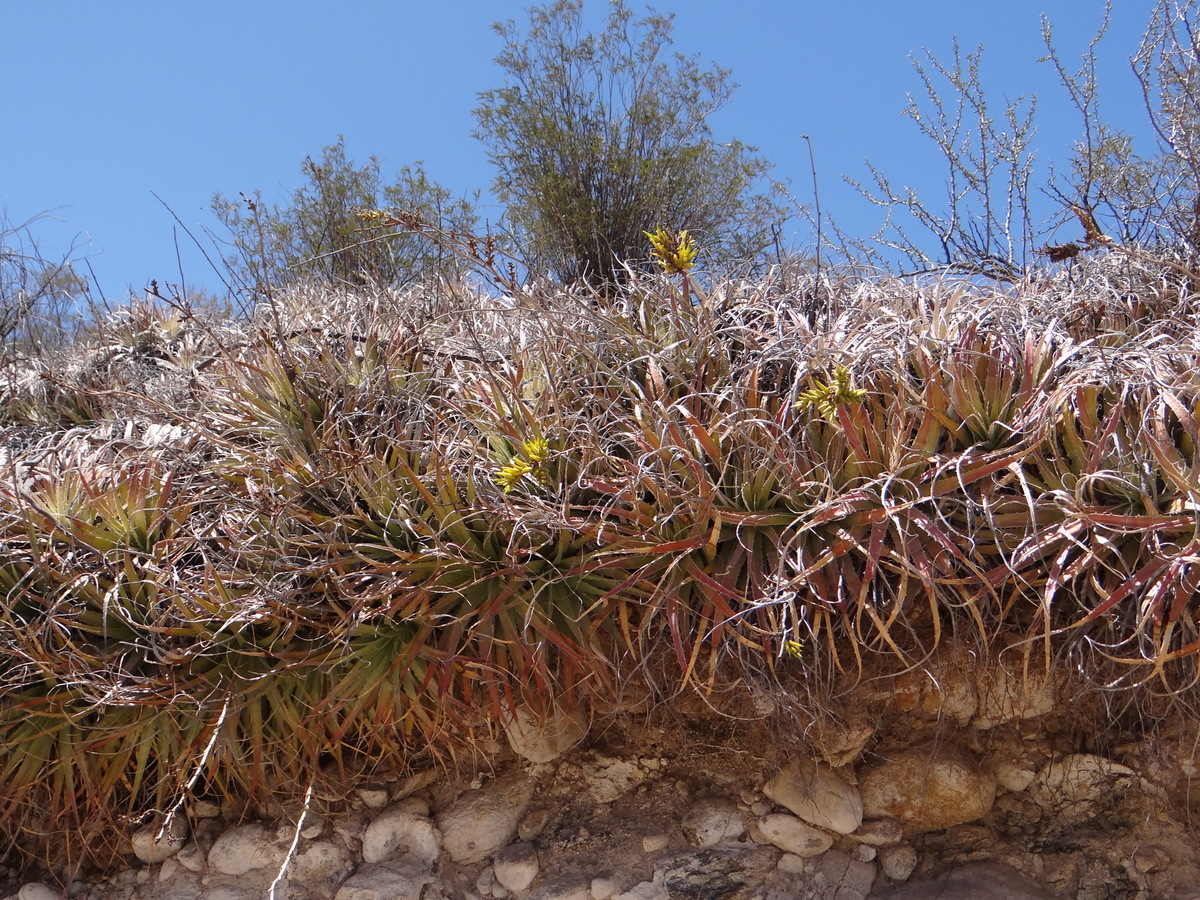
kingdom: Plantae
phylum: Tracheophyta
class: Liliopsida
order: Poales
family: Bromeliaceae
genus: Deuterocohnia
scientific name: Deuterocohnia haumanii
